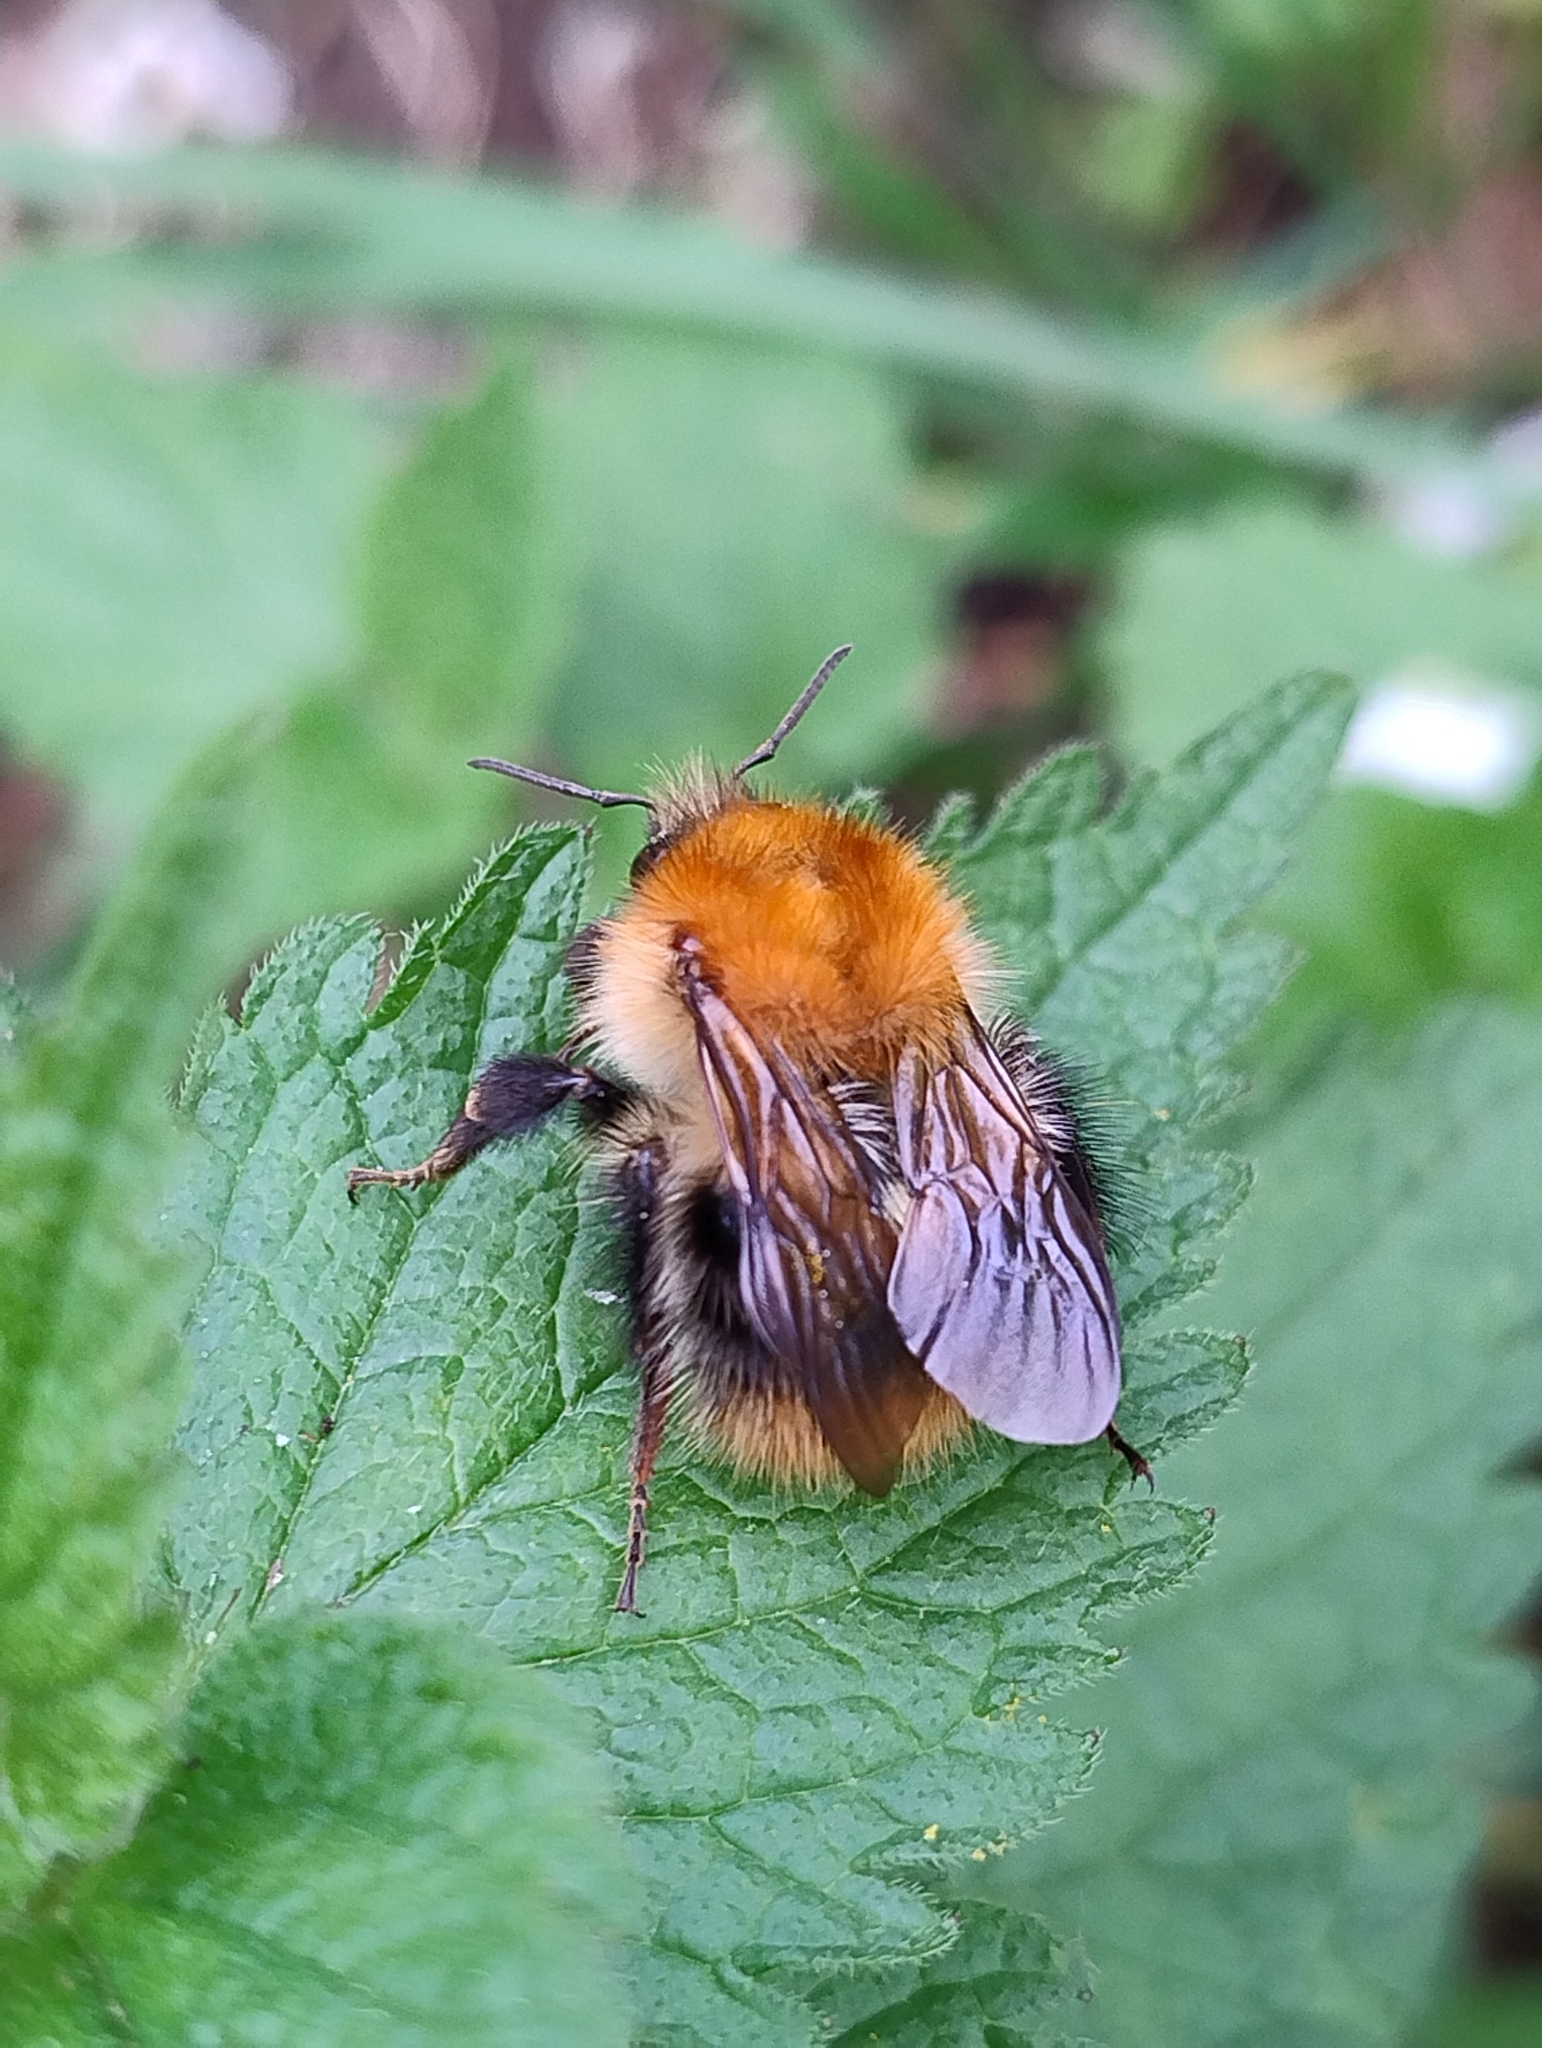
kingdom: Animalia
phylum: Arthropoda
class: Insecta
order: Hymenoptera
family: Apidae
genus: Bombus
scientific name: Bombus pascuorum
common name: Common carder bee
